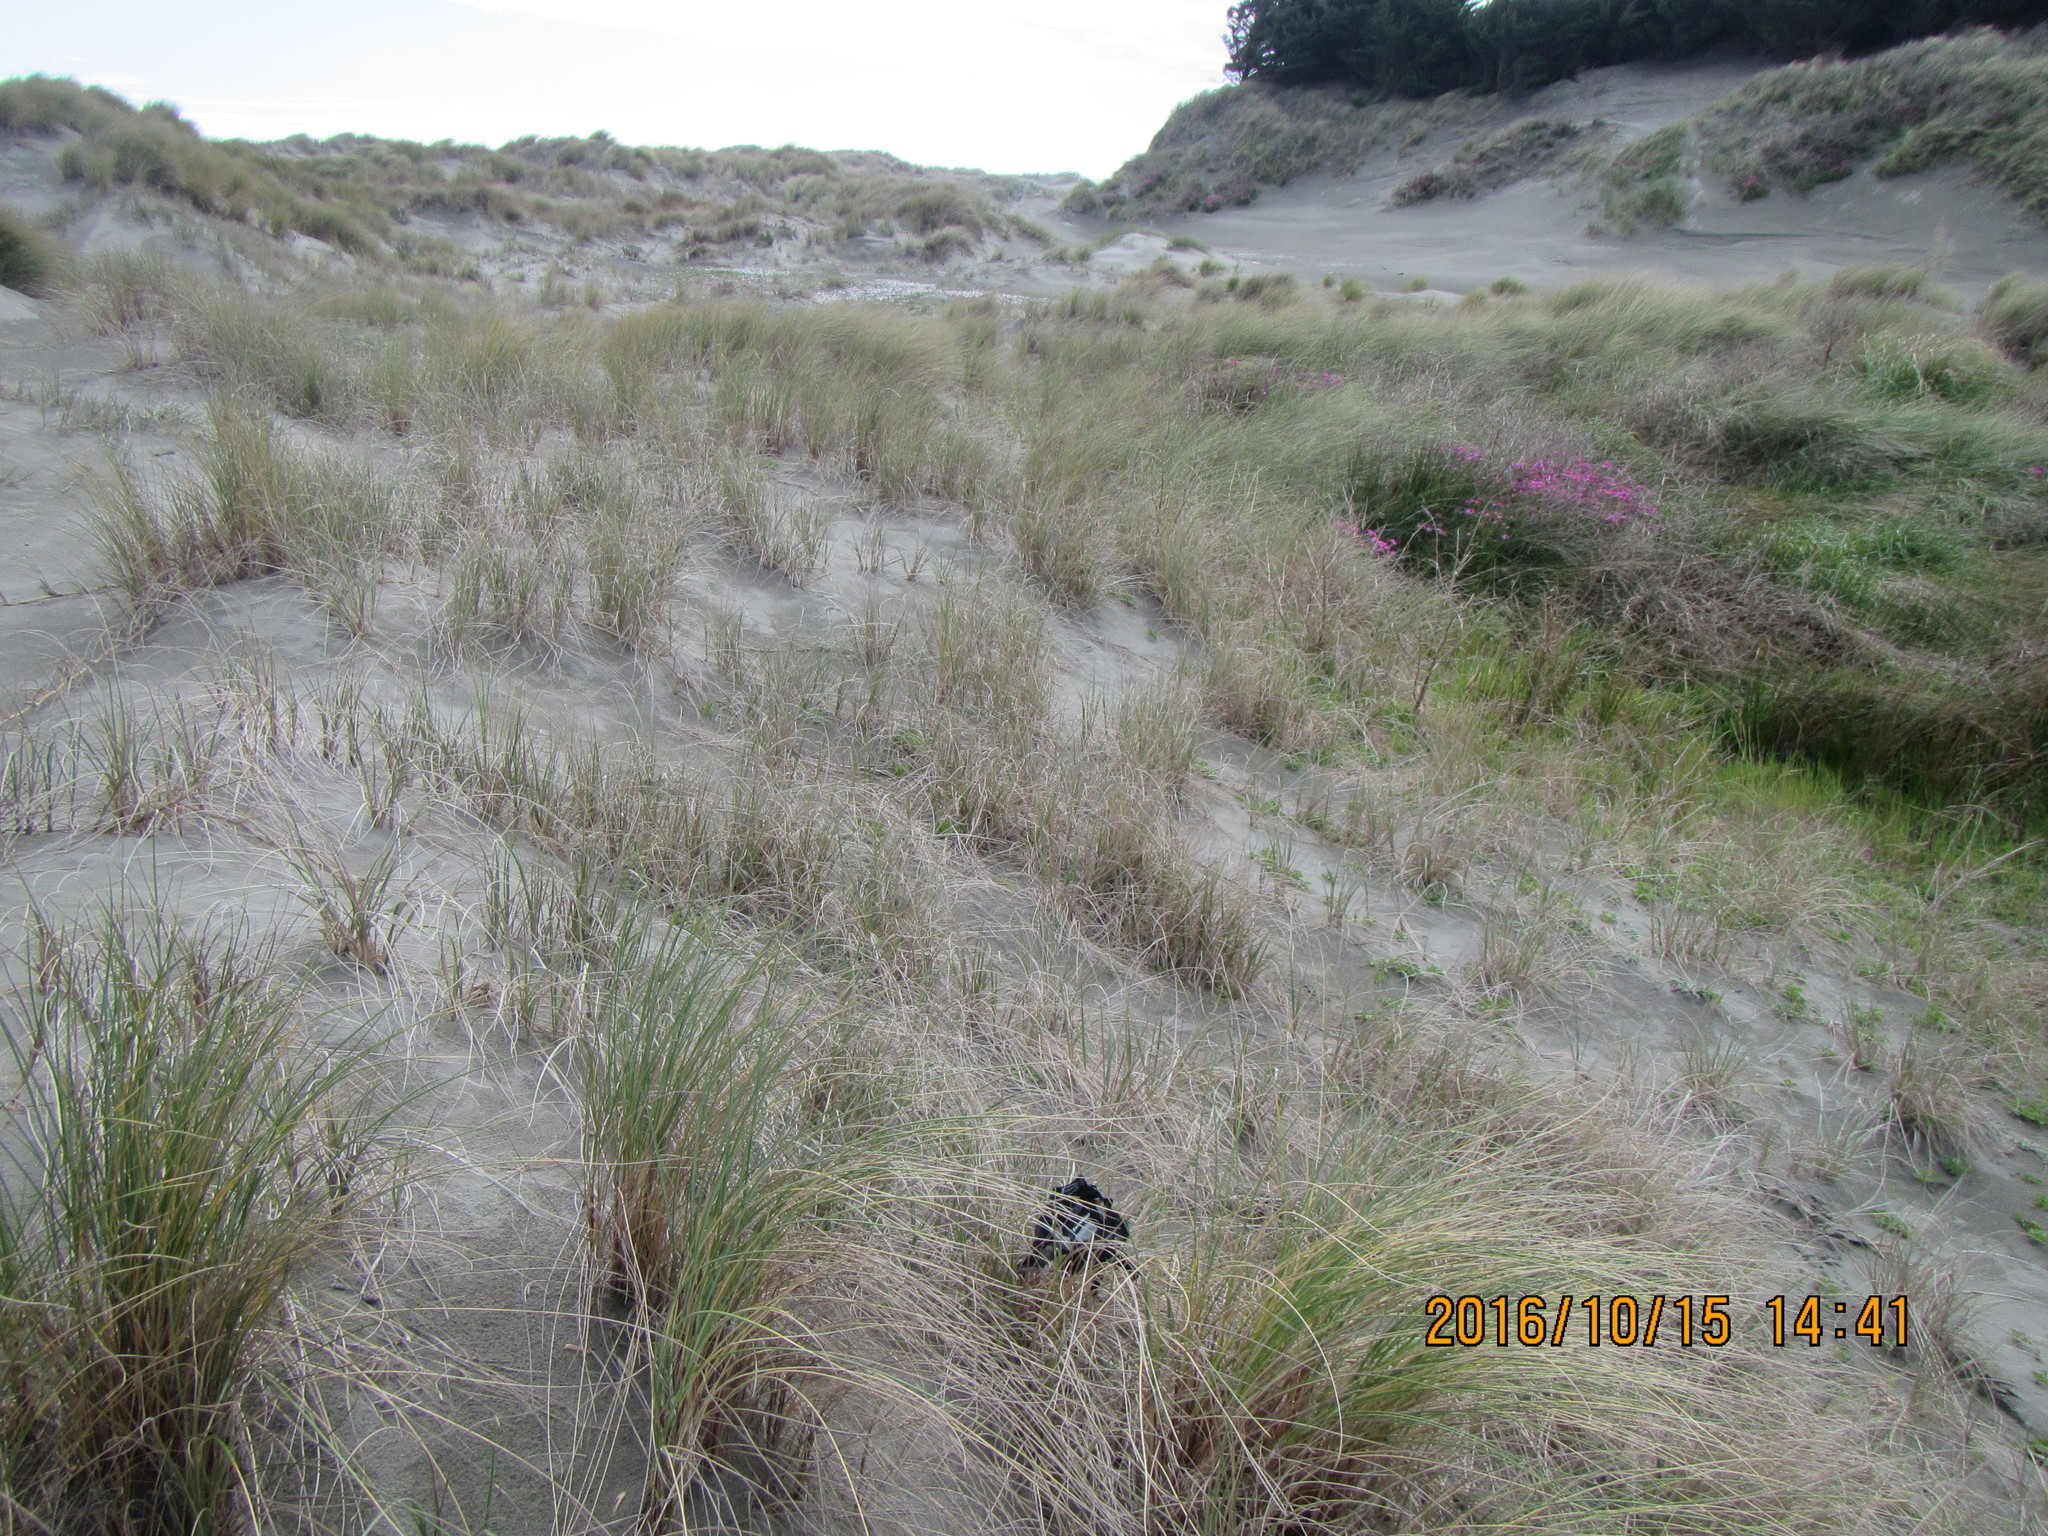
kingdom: Animalia
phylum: Arthropoda
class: Arachnida
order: Araneae
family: Pisauridae
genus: Dolomedes
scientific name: Dolomedes minor
